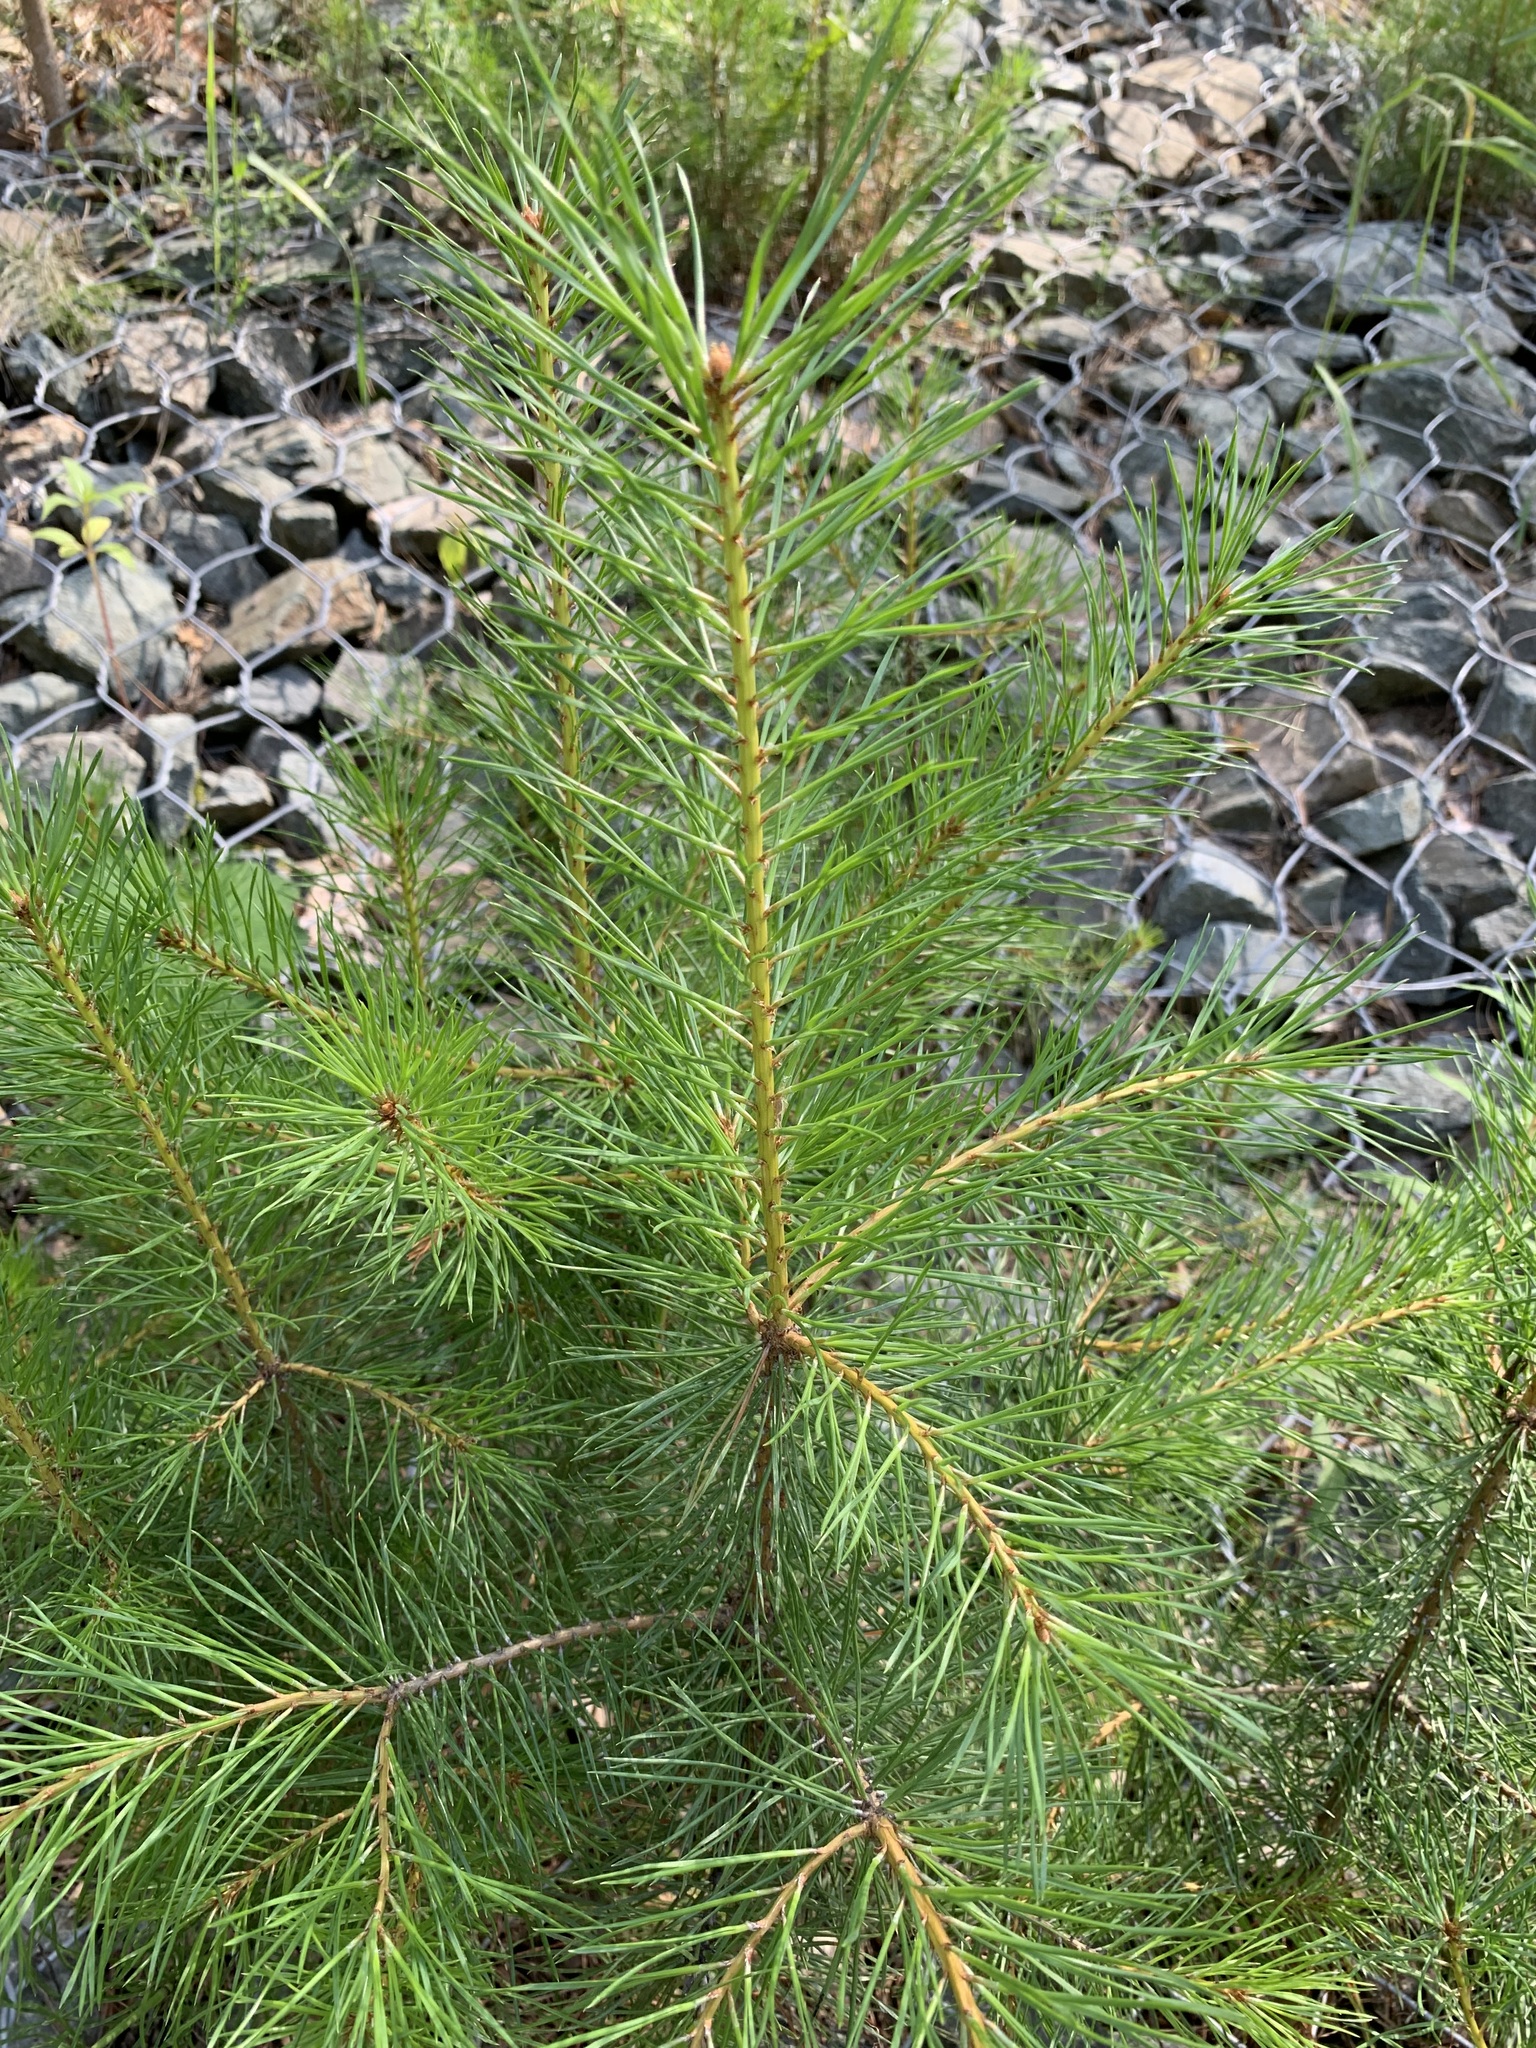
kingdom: Plantae
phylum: Tracheophyta
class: Pinopsida
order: Pinales
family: Pinaceae
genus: Pinus
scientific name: Pinus sylvestris
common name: Scots pine
